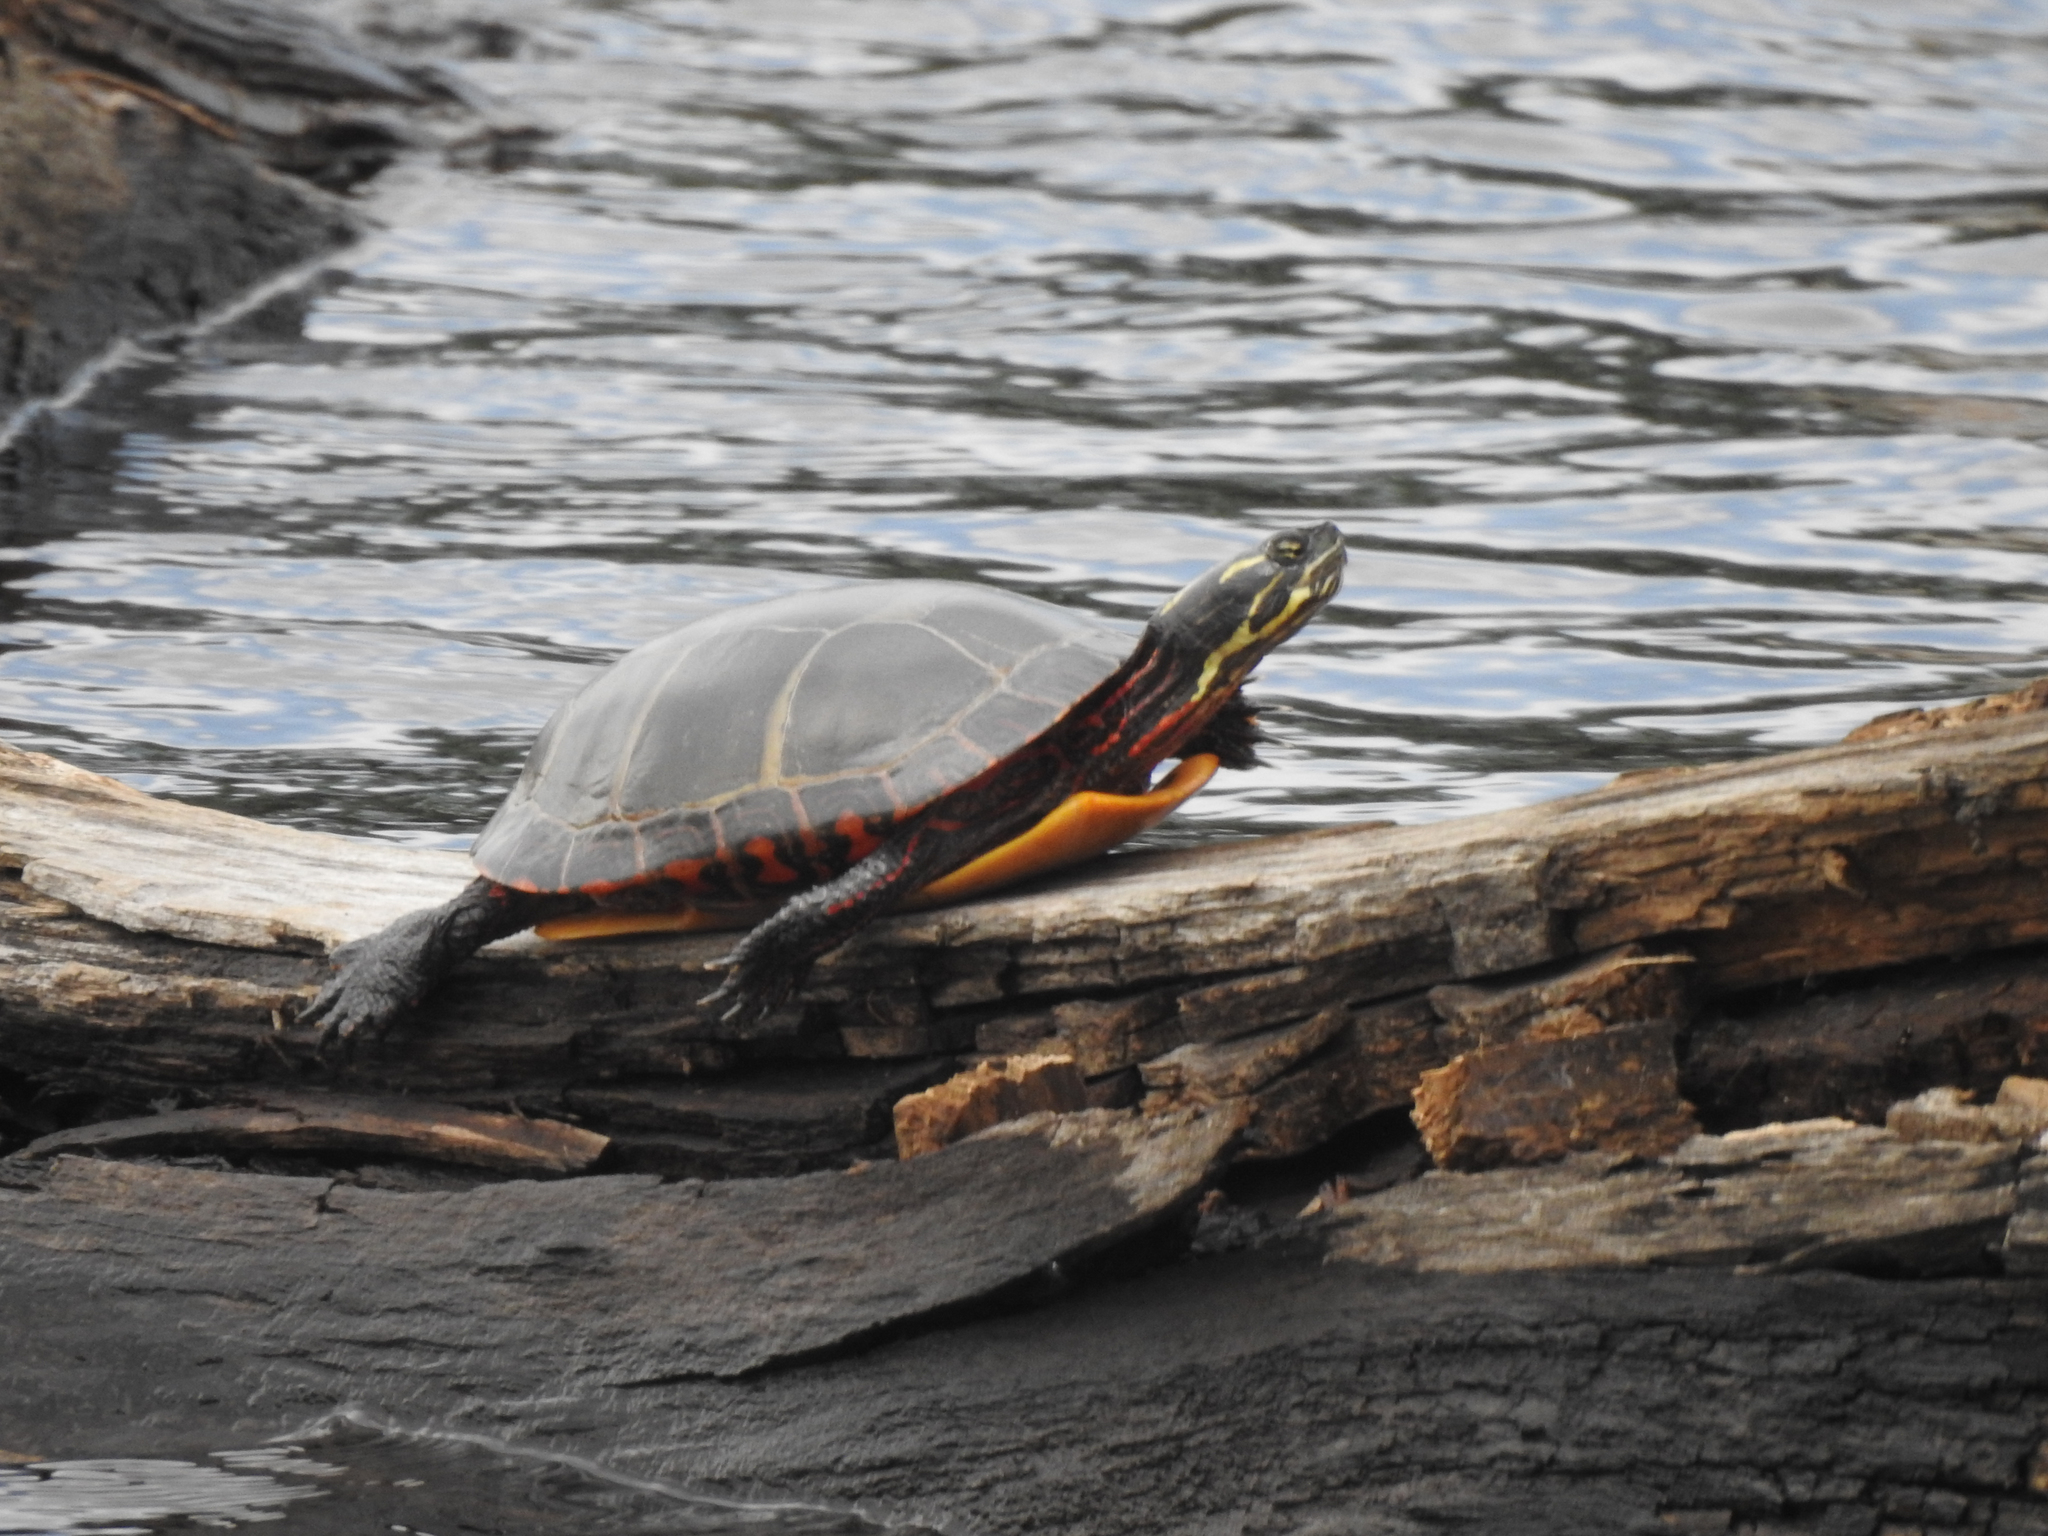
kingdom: Animalia
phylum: Chordata
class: Testudines
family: Emydidae
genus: Chrysemys
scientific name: Chrysemys picta
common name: Painted turtle
